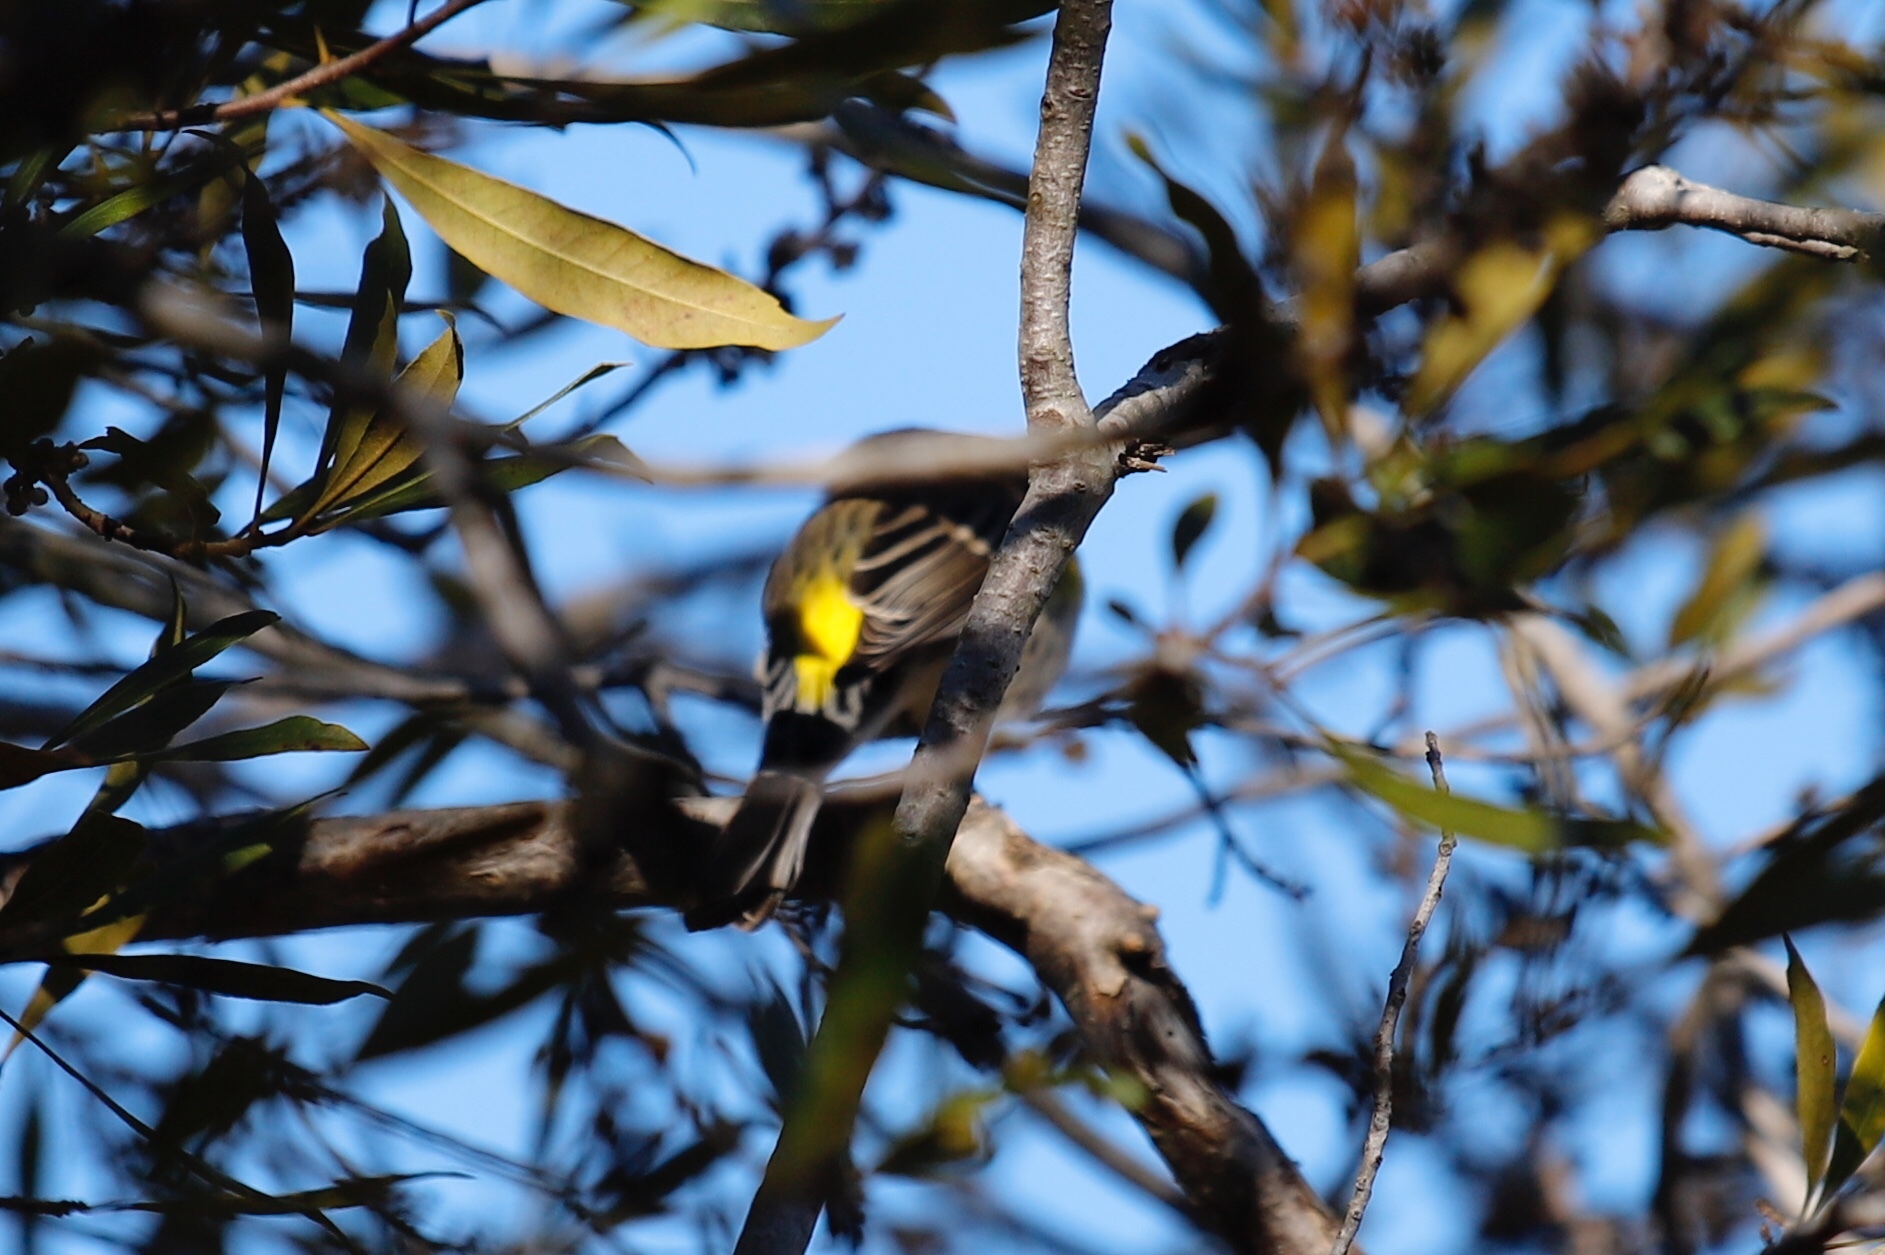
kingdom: Animalia
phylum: Chordata
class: Aves
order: Passeriformes
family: Parulidae
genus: Setophaga
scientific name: Setophaga coronata
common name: Myrtle warbler
